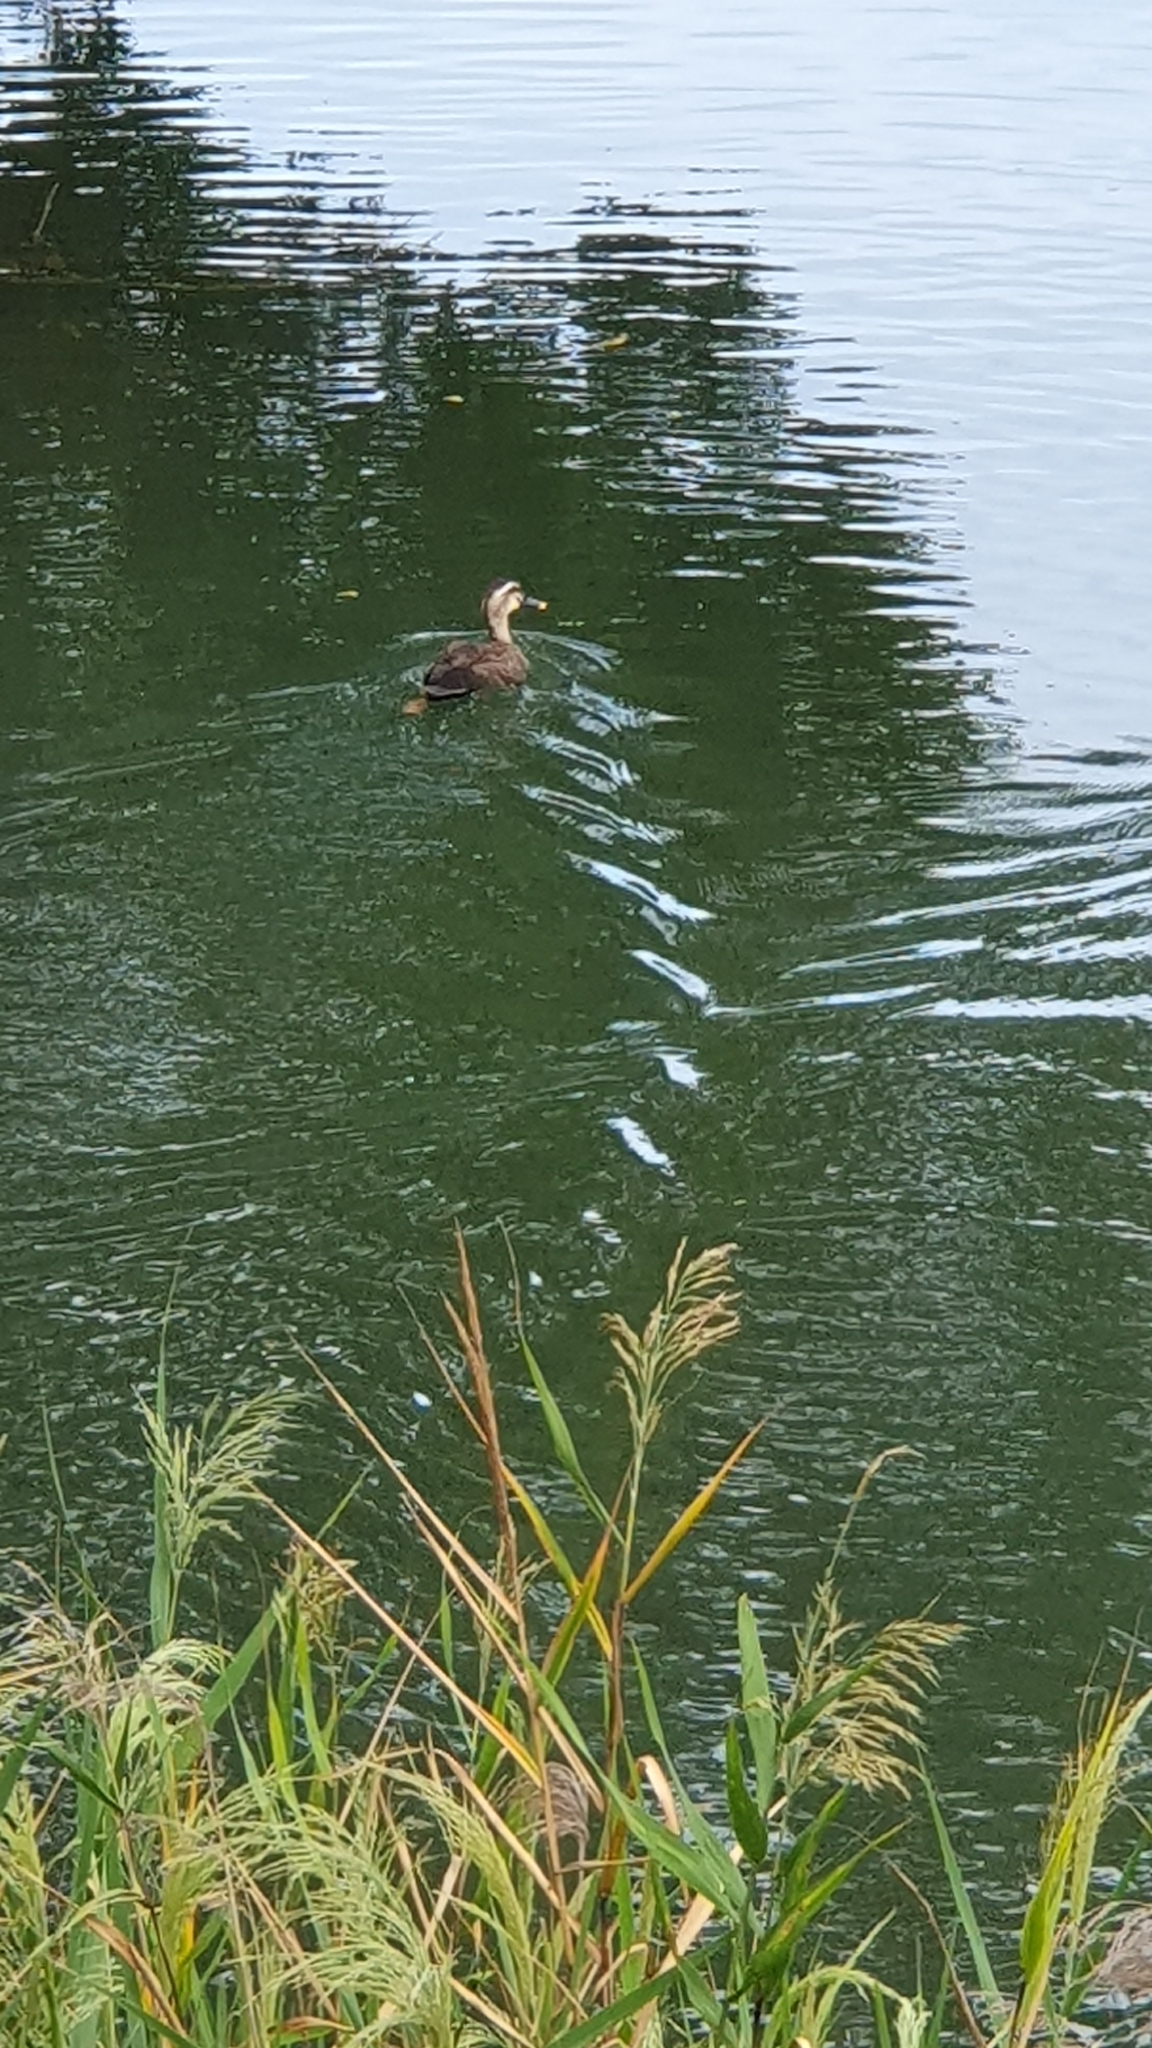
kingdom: Animalia
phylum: Chordata
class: Aves
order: Anseriformes
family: Anatidae
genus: Anas
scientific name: Anas zonorhyncha
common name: Eastern spot-billed duck
